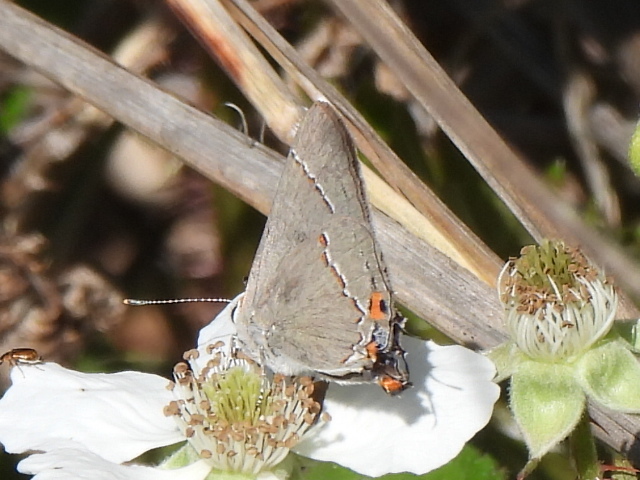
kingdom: Animalia
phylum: Arthropoda
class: Insecta
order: Lepidoptera
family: Lycaenidae
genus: Strymon
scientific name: Strymon melinus
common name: Gray hairstreak
